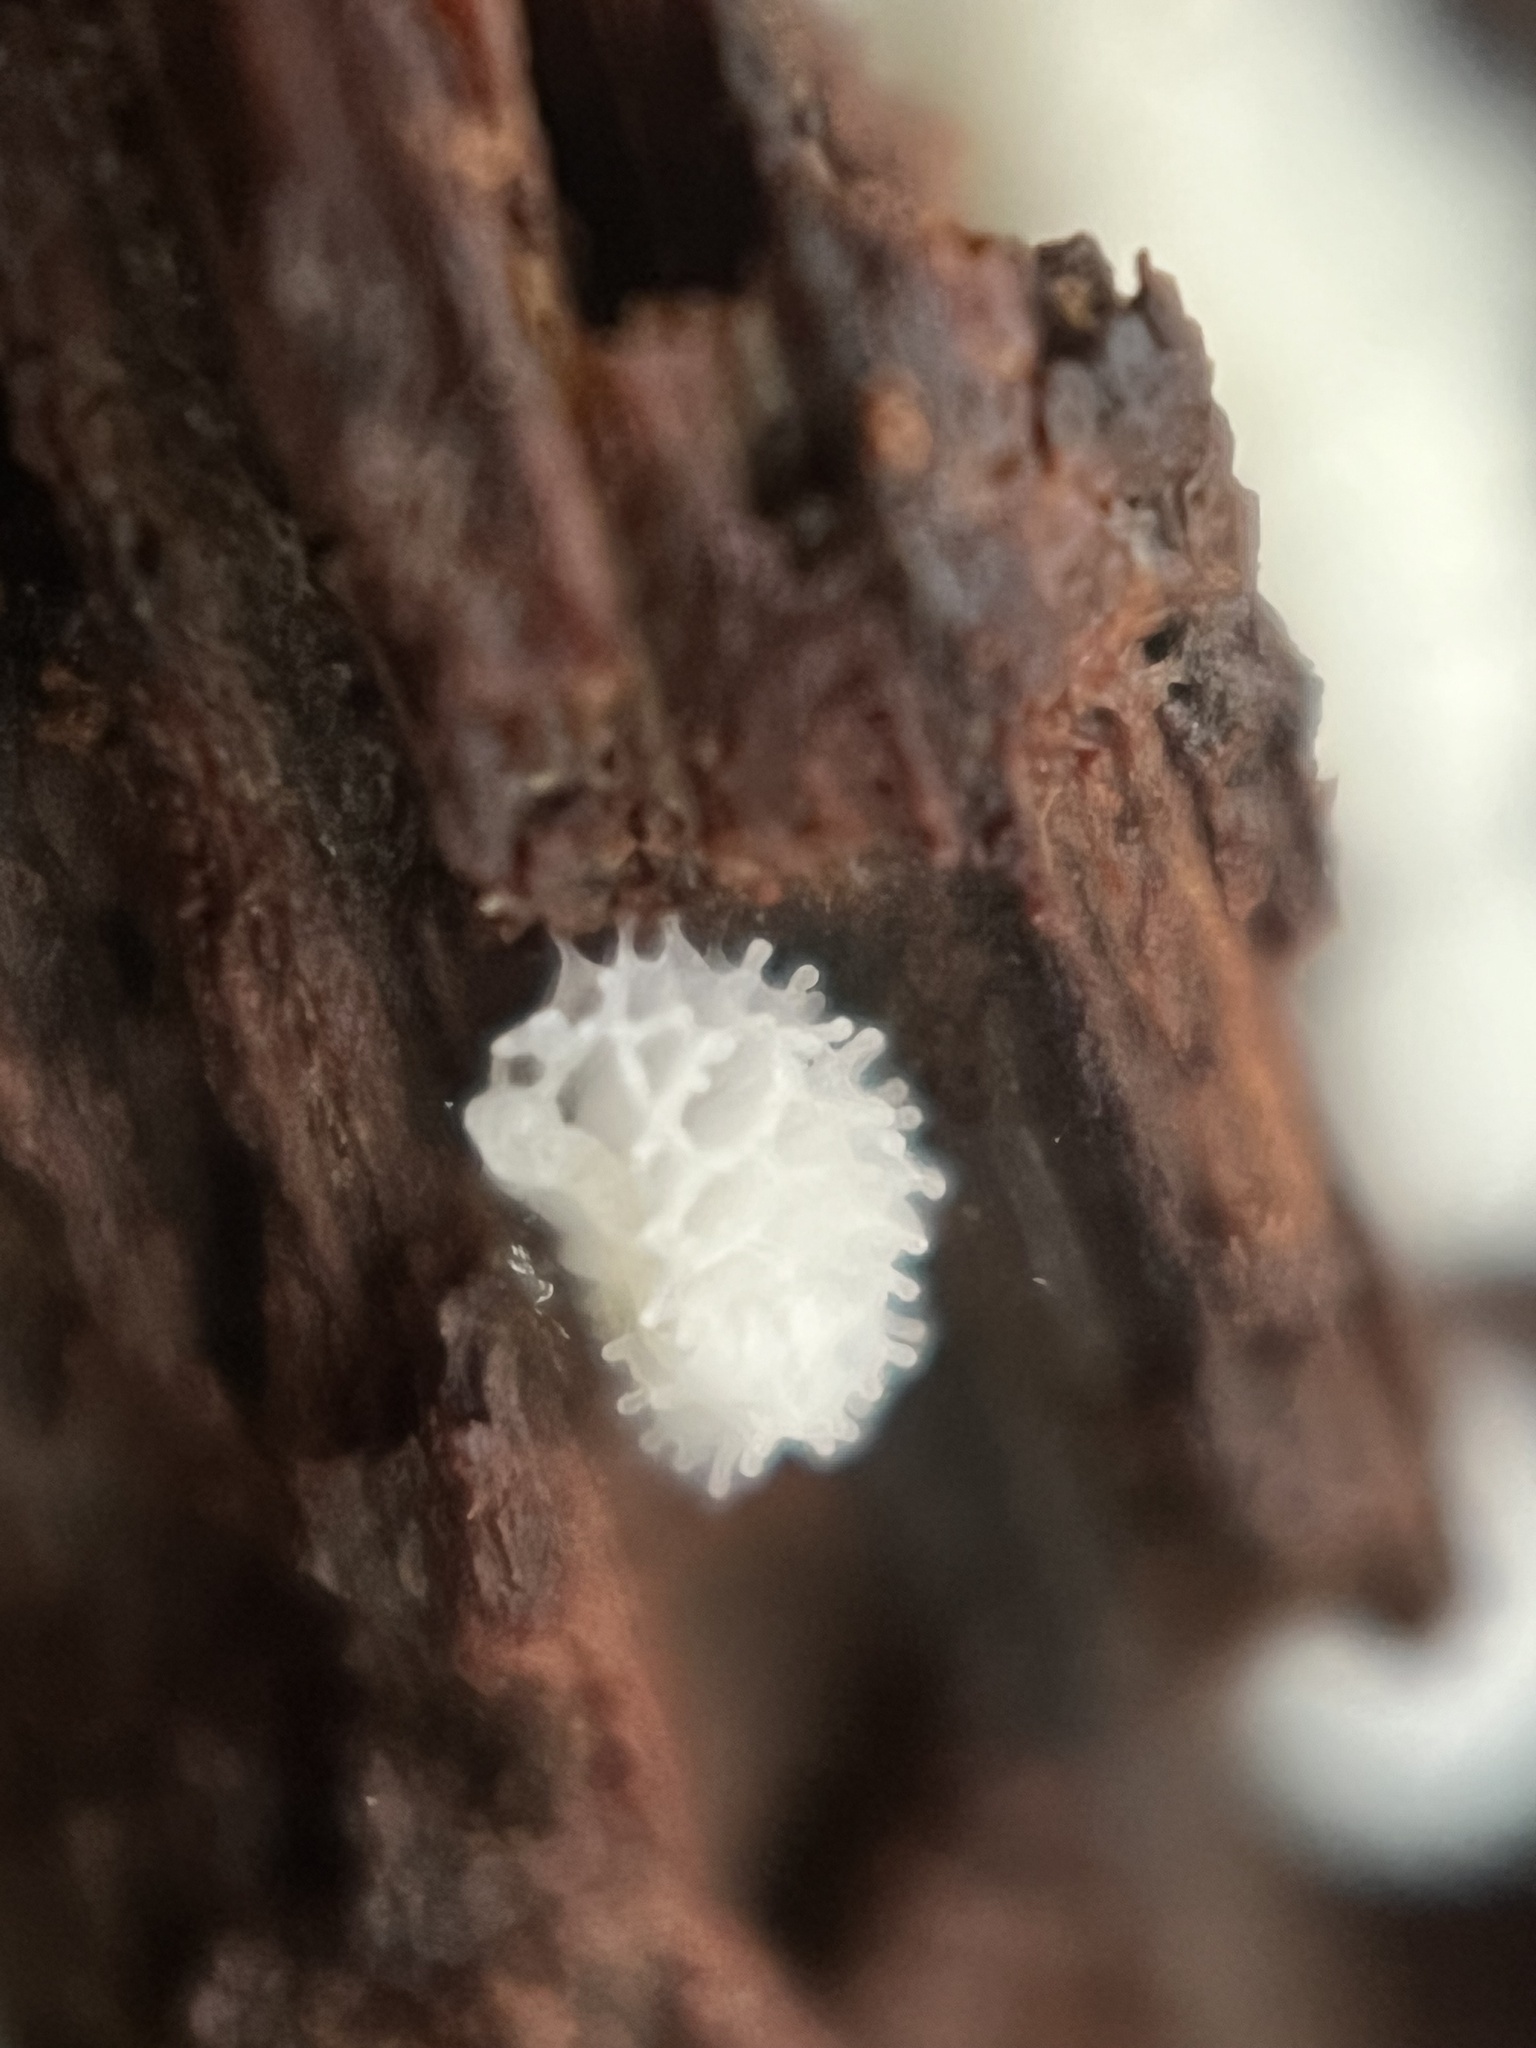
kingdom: Protozoa
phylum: Mycetozoa
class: Protosteliomycetes
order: Ceratiomyxales
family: Ceratiomyxaceae
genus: Ceratiomyxa
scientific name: Ceratiomyxa fruticulosa
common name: Honeycomb coral slime mold
